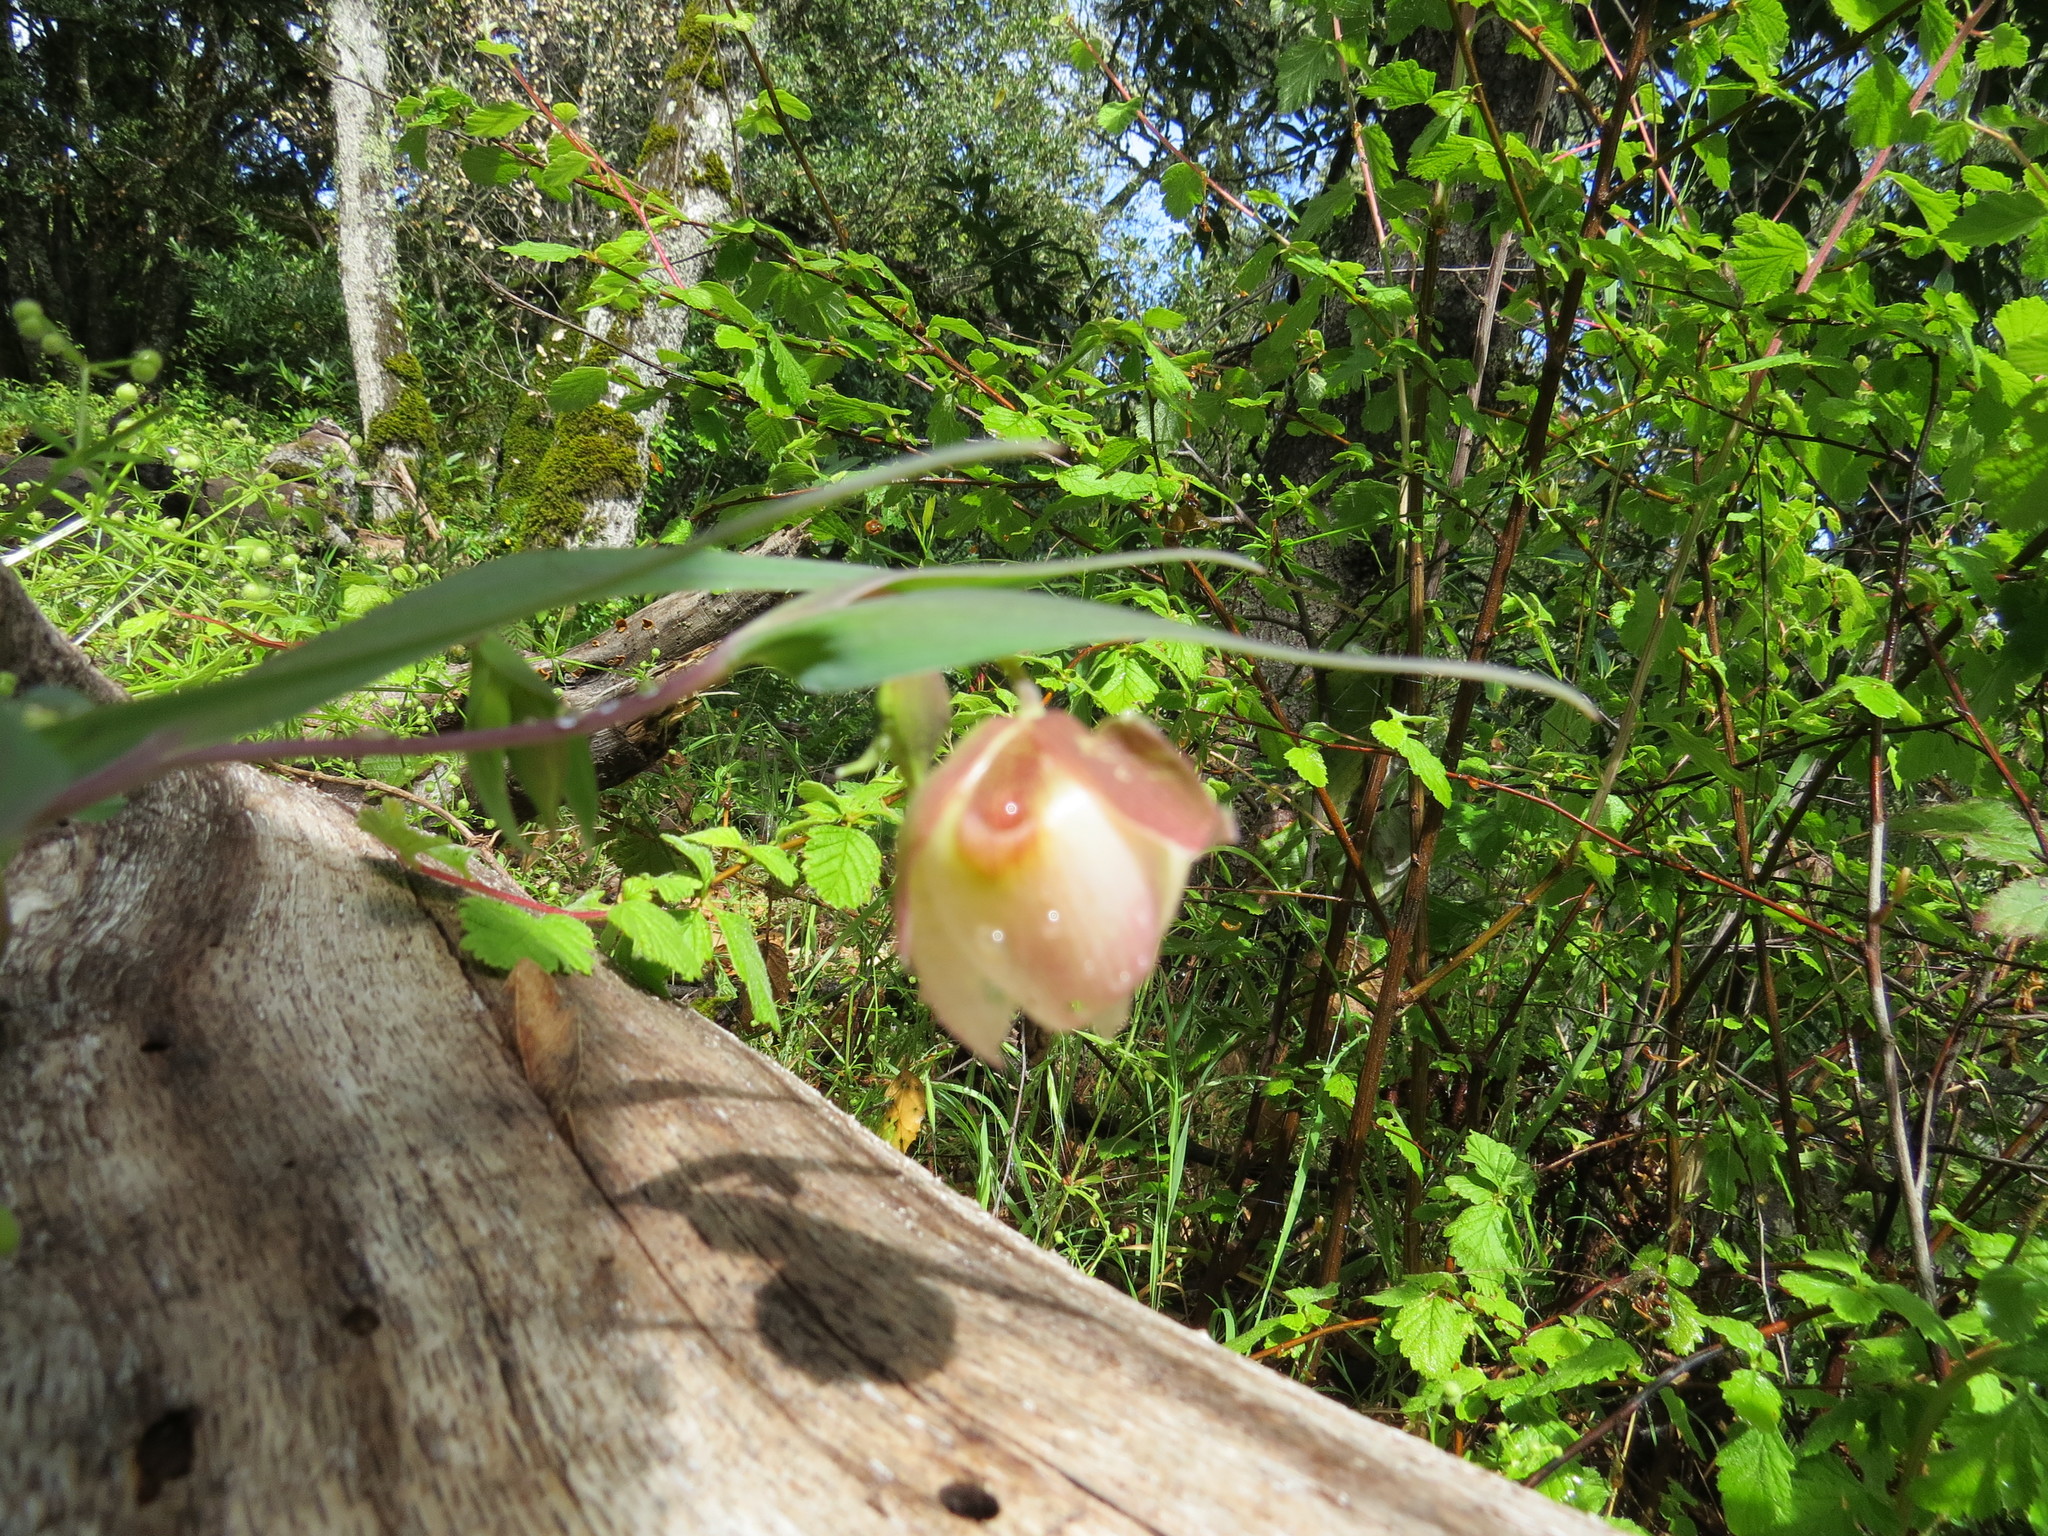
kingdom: Plantae
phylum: Tracheophyta
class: Liliopsida
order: Liliales
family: Liliaceae
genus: Calochortus
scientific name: Calochortus albus
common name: Fairy-lantern
